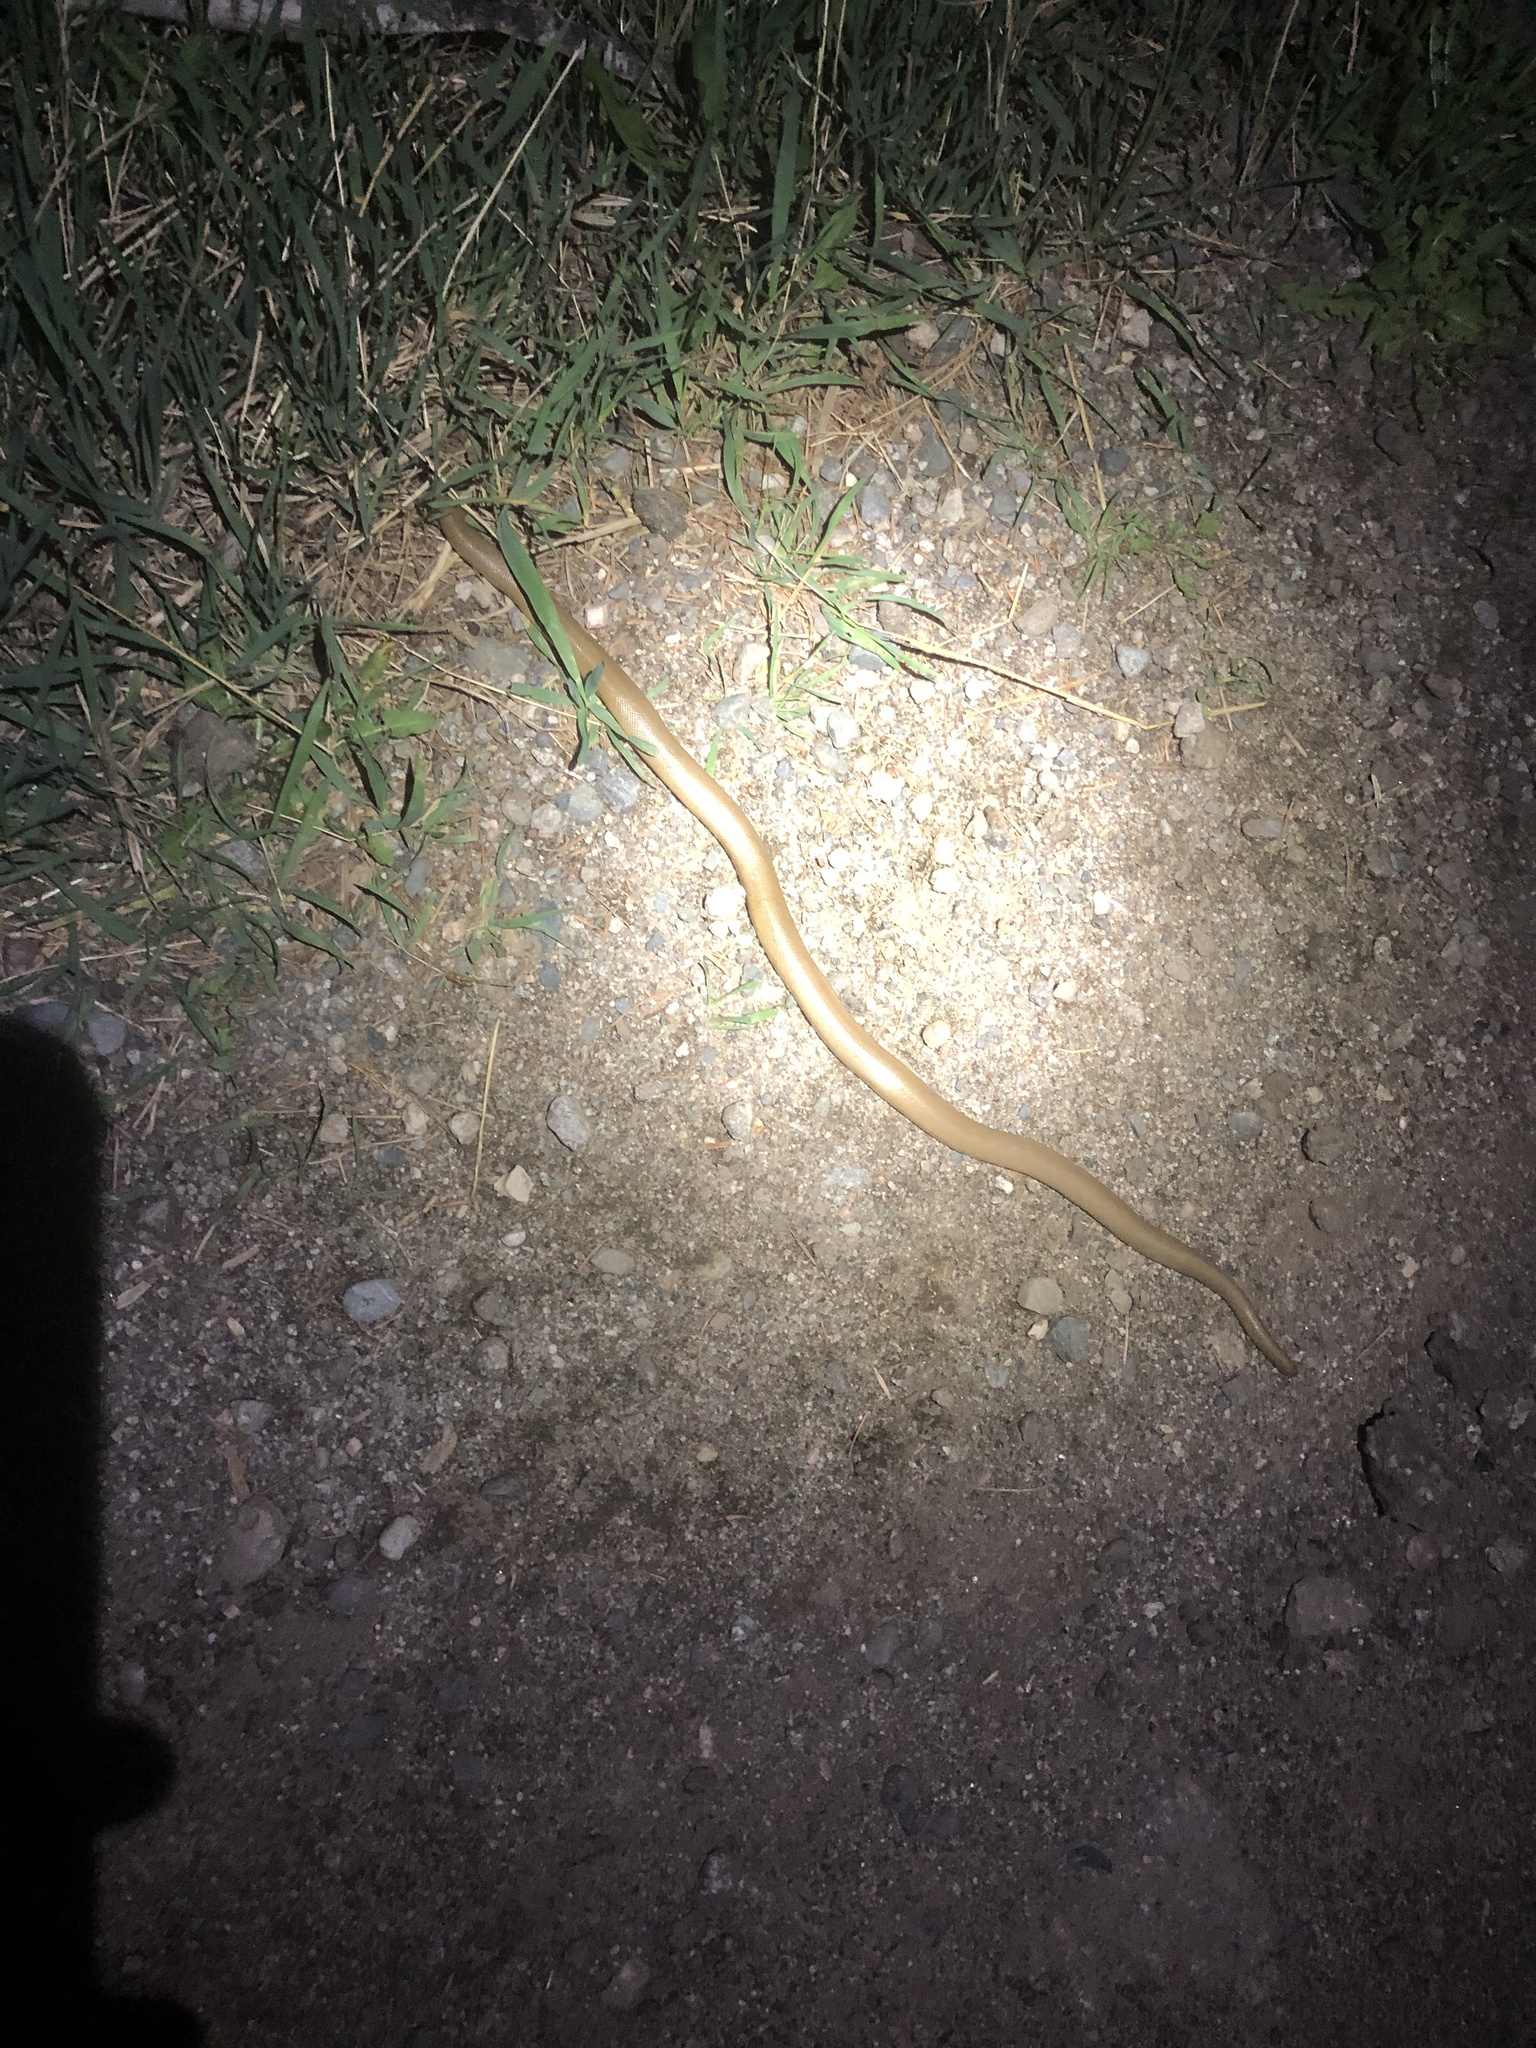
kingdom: Animalia
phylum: Chordata
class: Squamata
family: Boidae
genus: Charina
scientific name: Charina bottae
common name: Northern rubber boa
